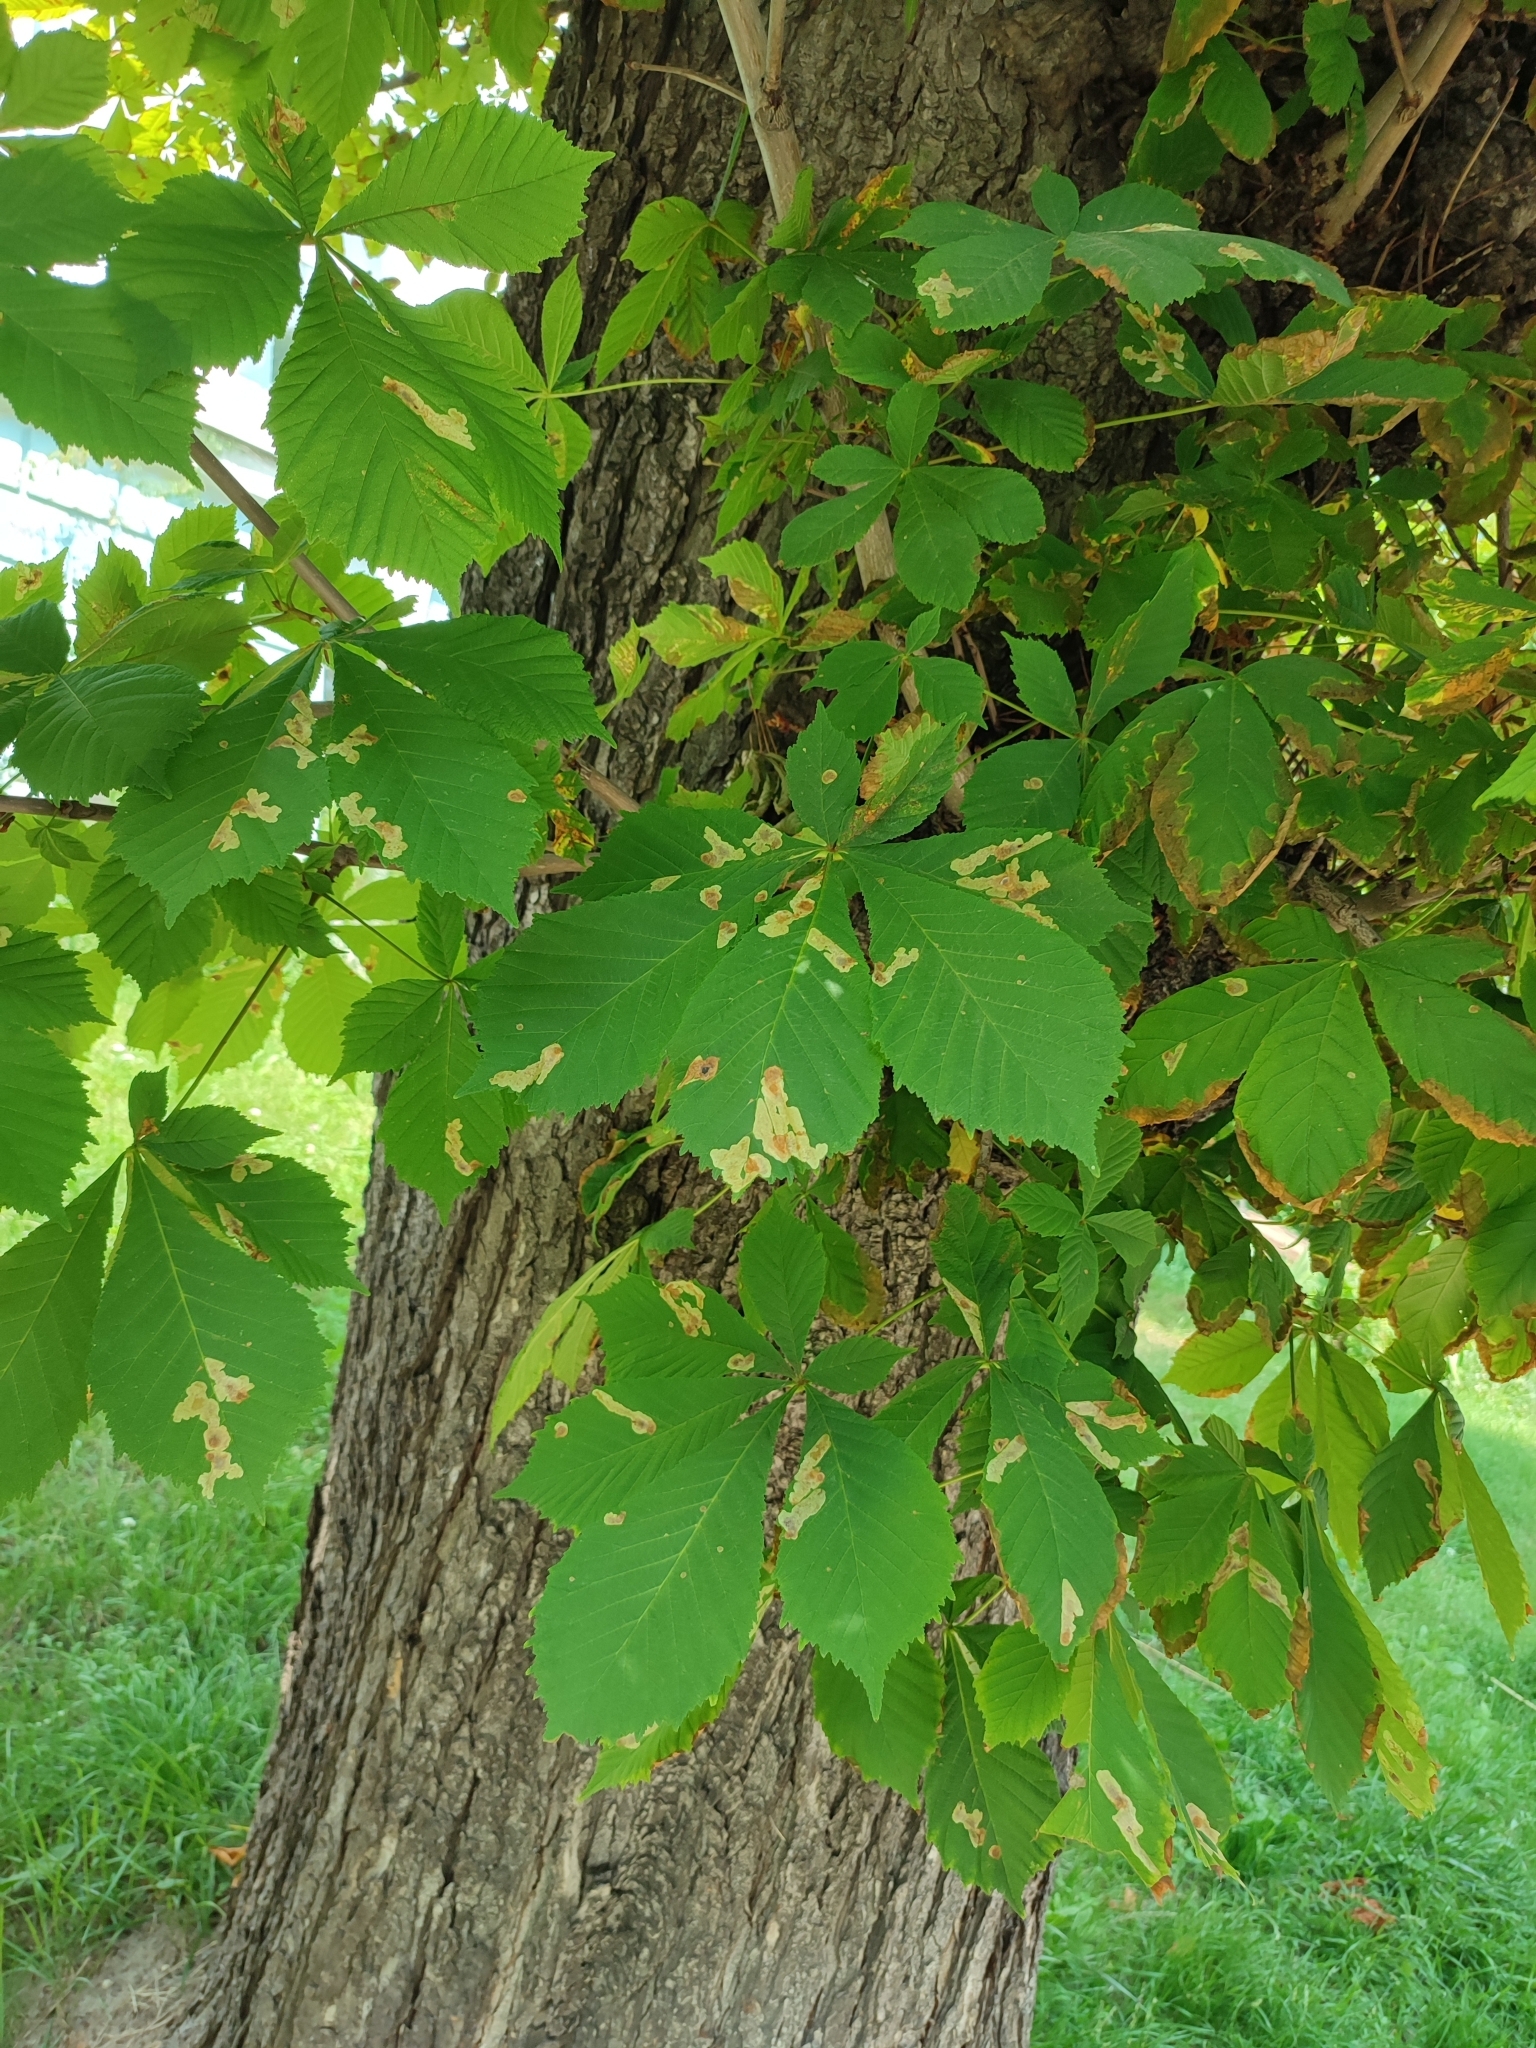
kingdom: Animalia
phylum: Arthropoda
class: Insecta
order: Lepidoptera
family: Gracillariidae
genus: Cameraria
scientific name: Cameraria ohridella
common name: Horse-chestnut leaf-miner
